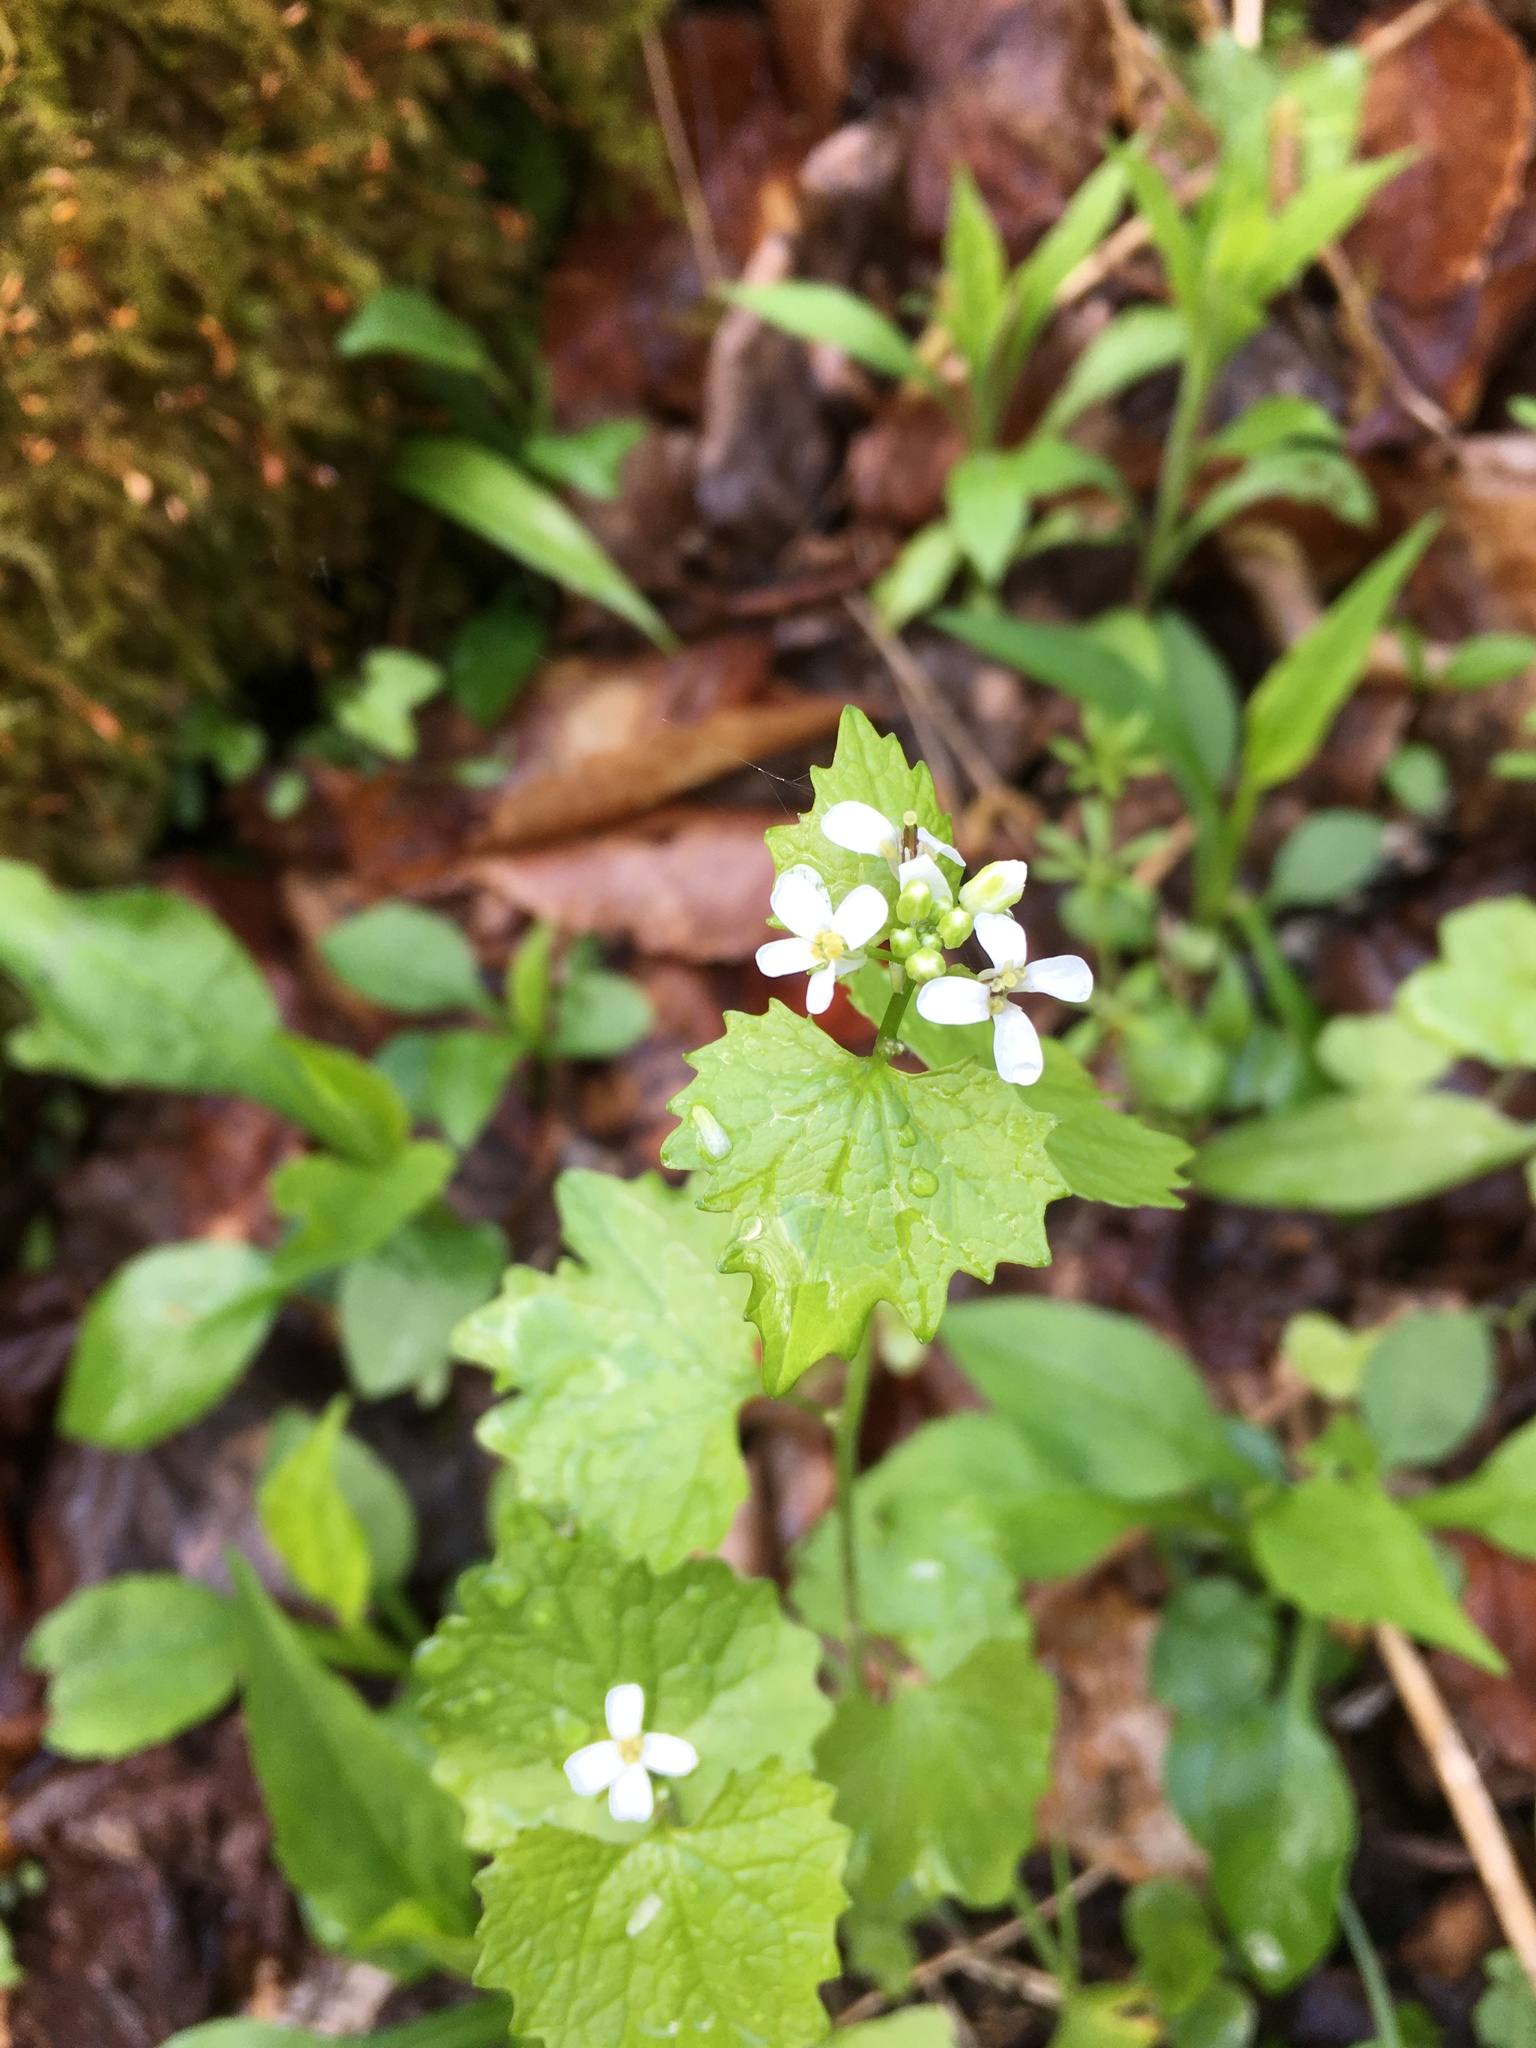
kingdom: Plantae
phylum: Tracheophyta
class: Magnoliopsida
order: Brassicales
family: Brassicaceae
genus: Alliaria
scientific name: Alliaria petiolata
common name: Garlic mustard
